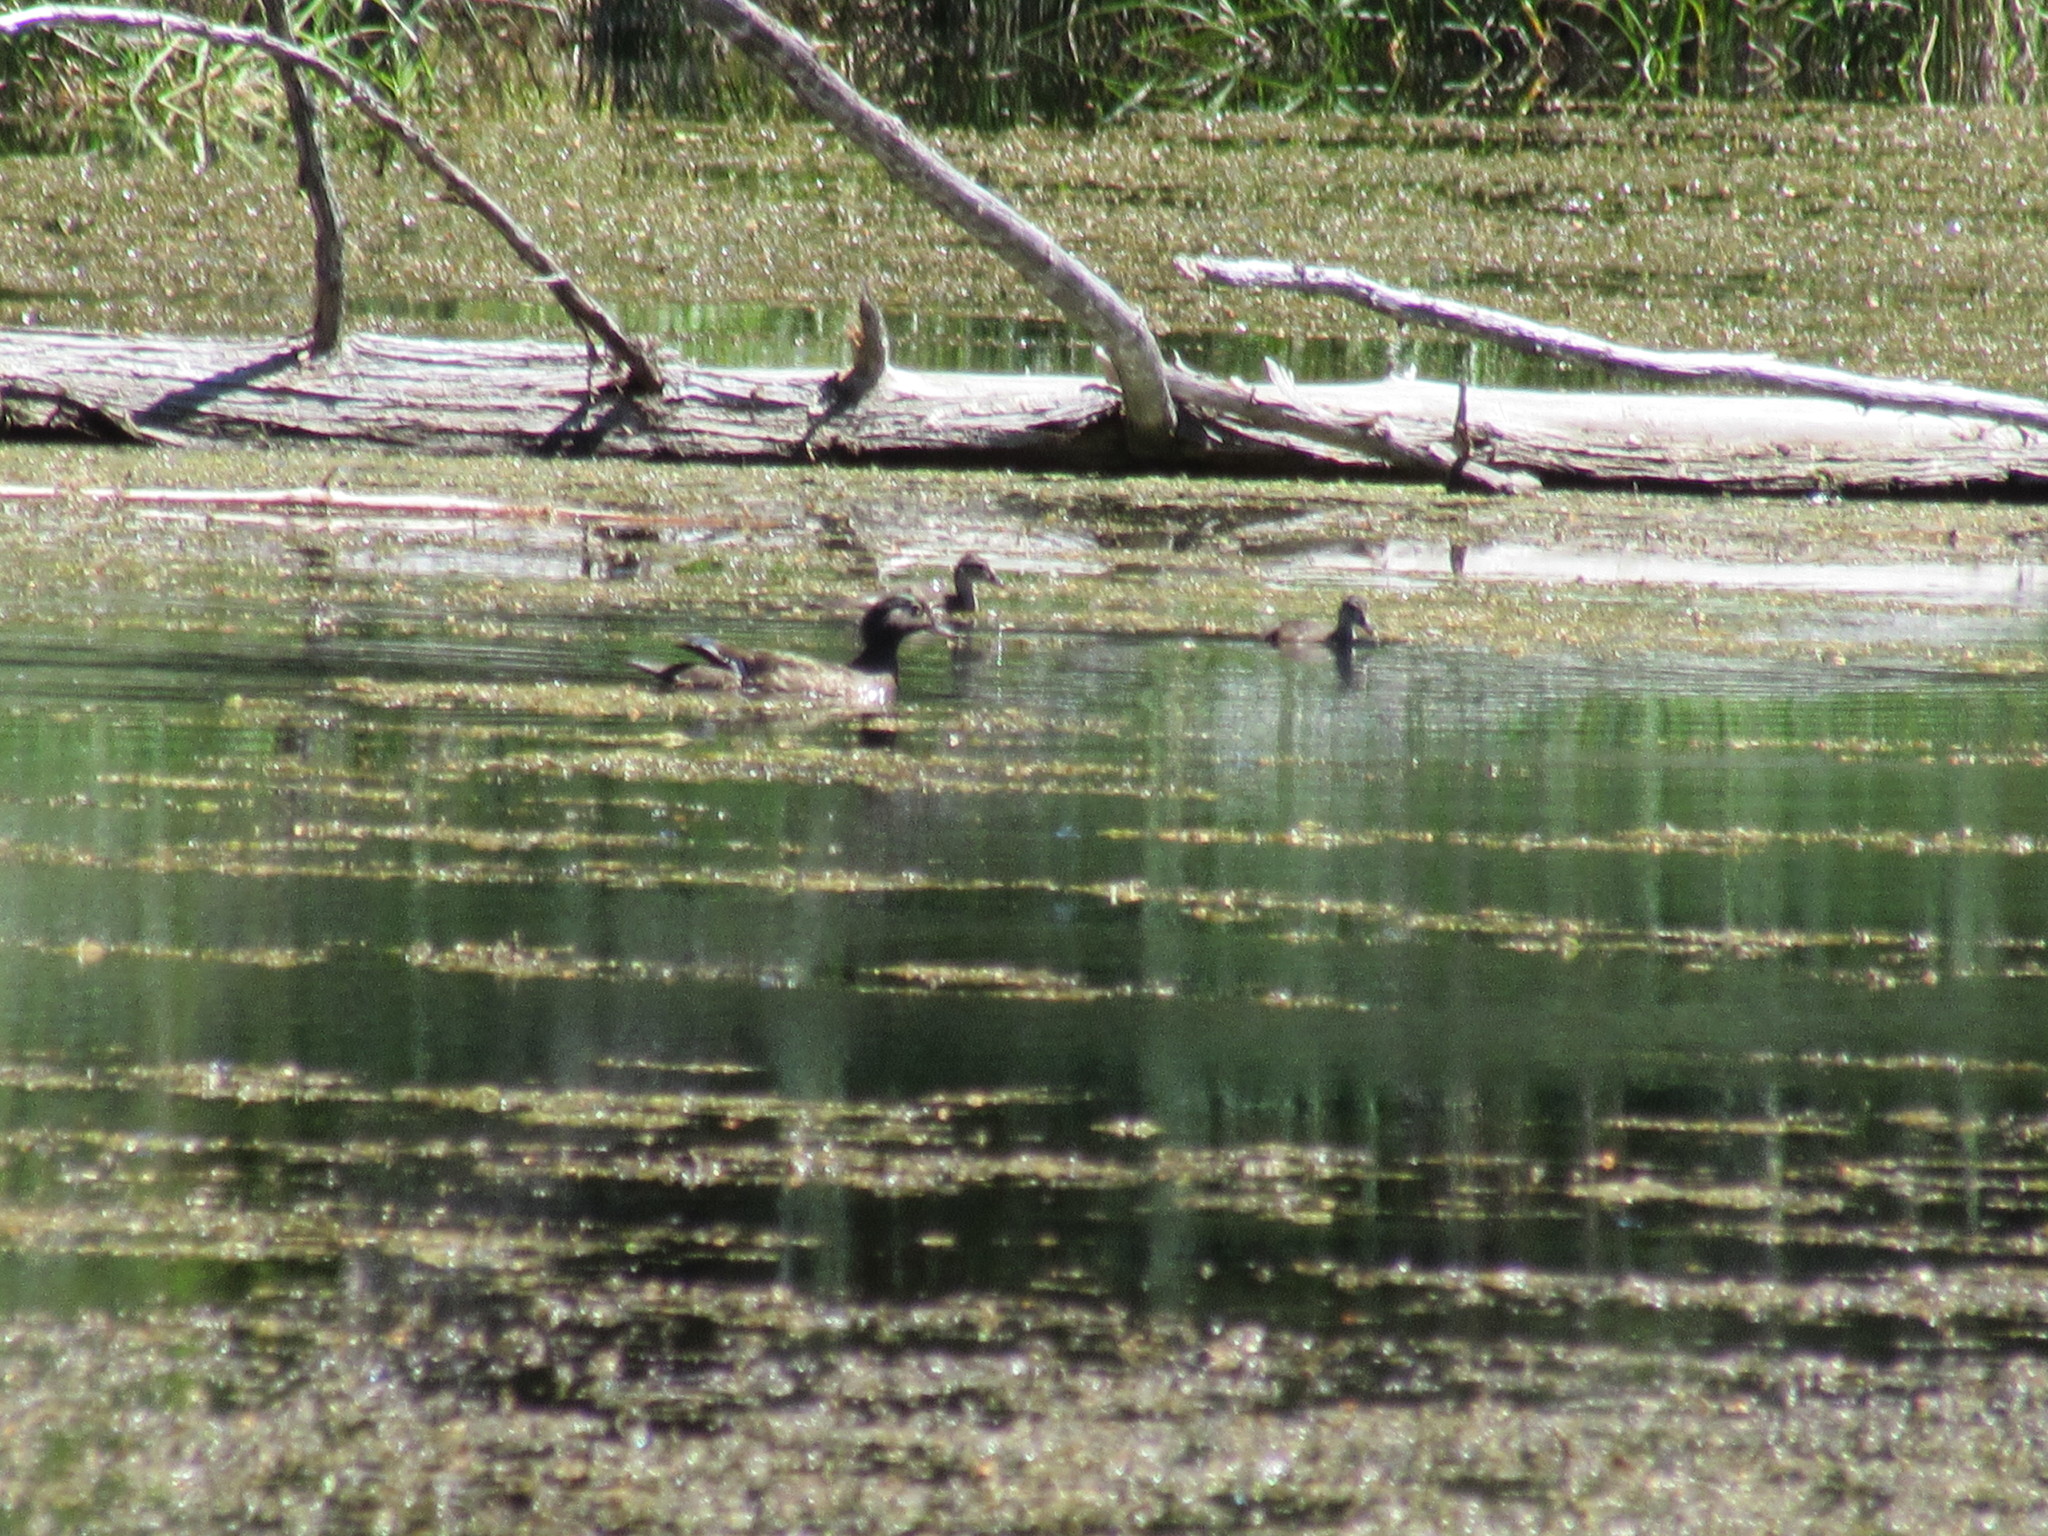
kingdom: Animalia
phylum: Chordata
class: Aves
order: Anseriformes
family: Anatidae
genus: Aix
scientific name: Aix sponsa
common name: Wood duck
